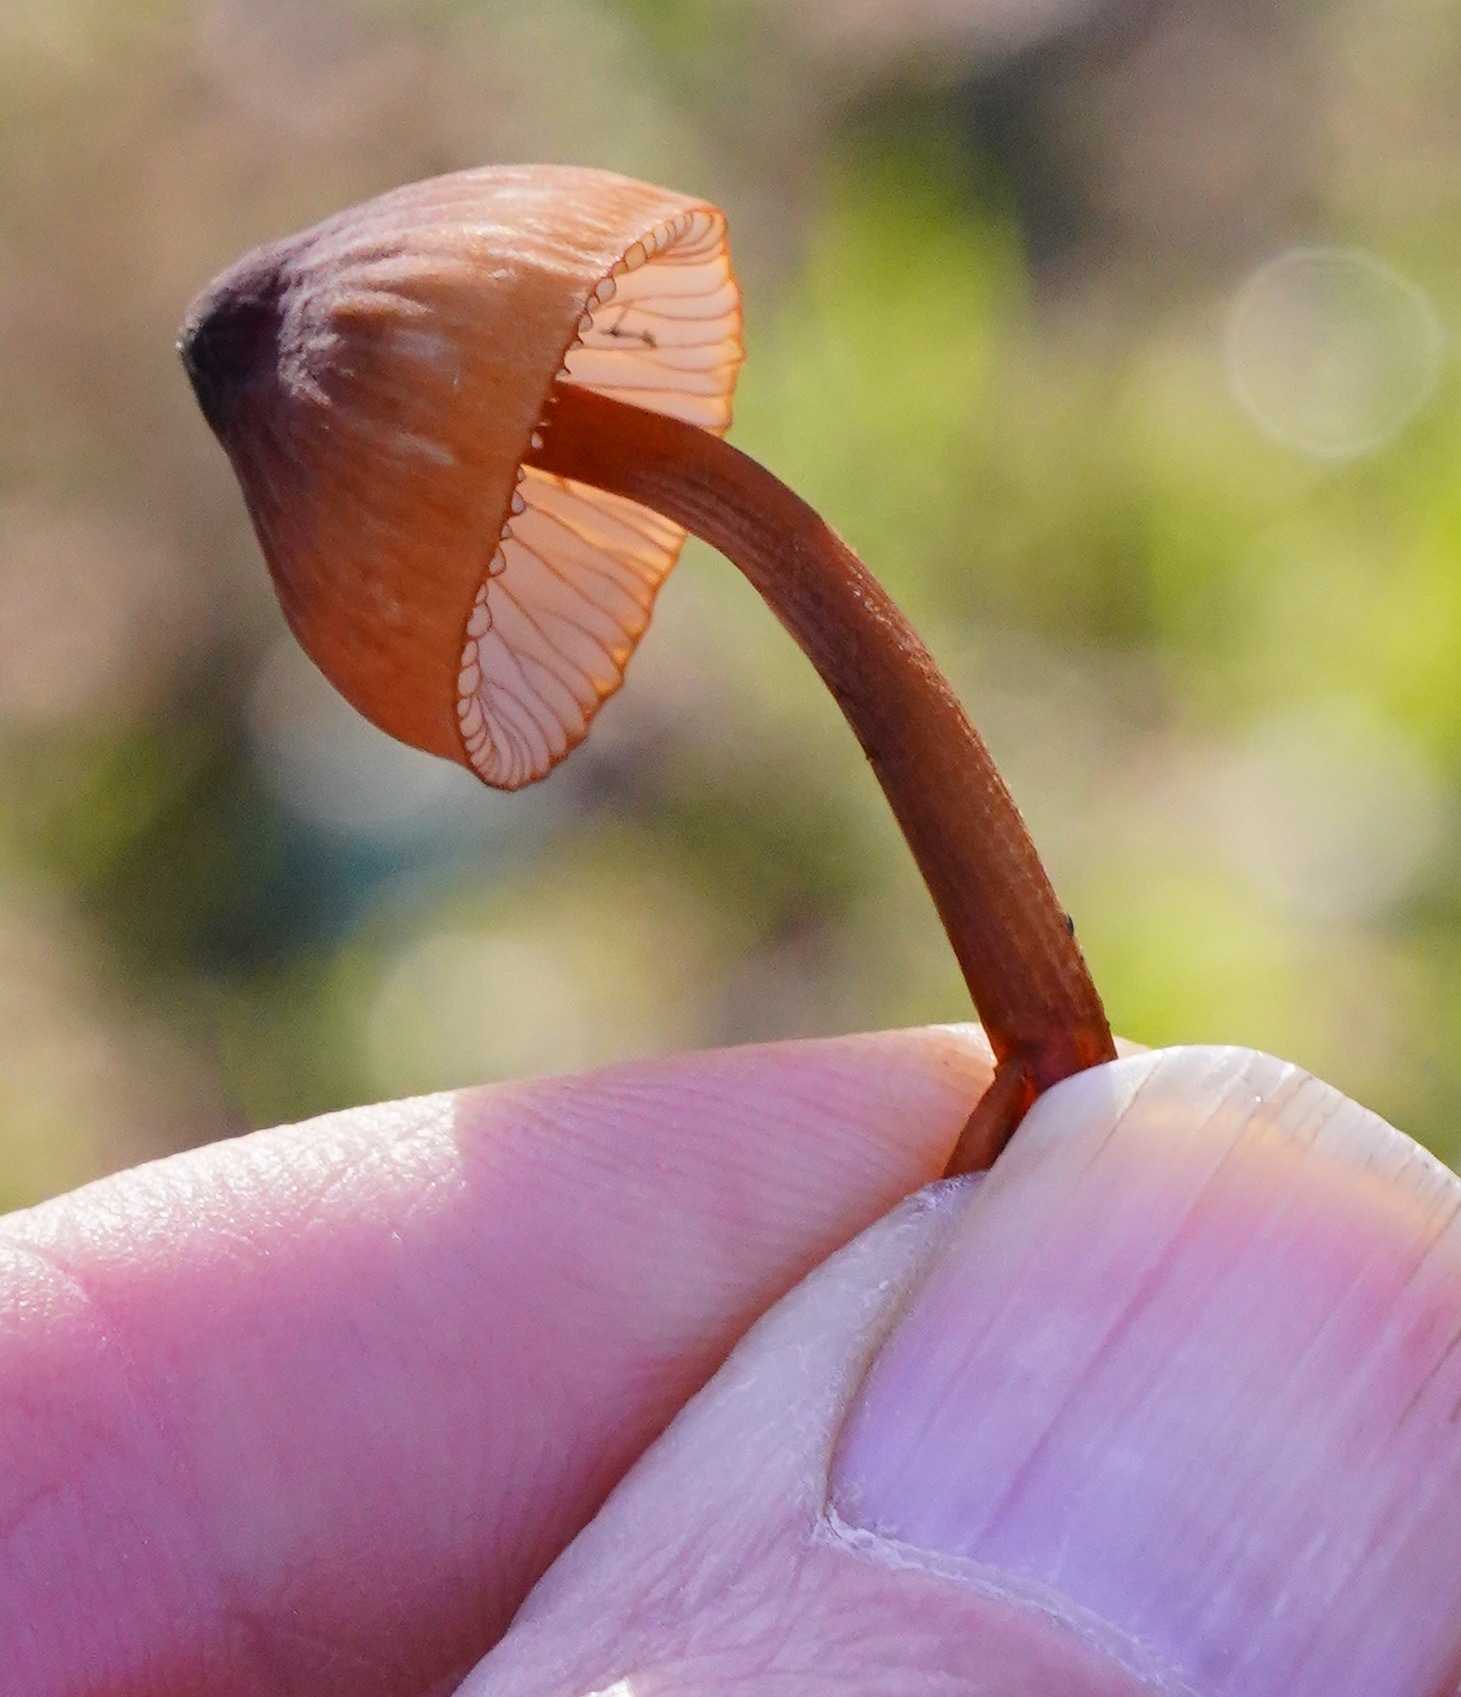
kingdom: Fungi
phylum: Basidiomycota
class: Agaricomycetes
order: Agaricales
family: Mycenaceae
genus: Mycena
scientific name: Mycena
